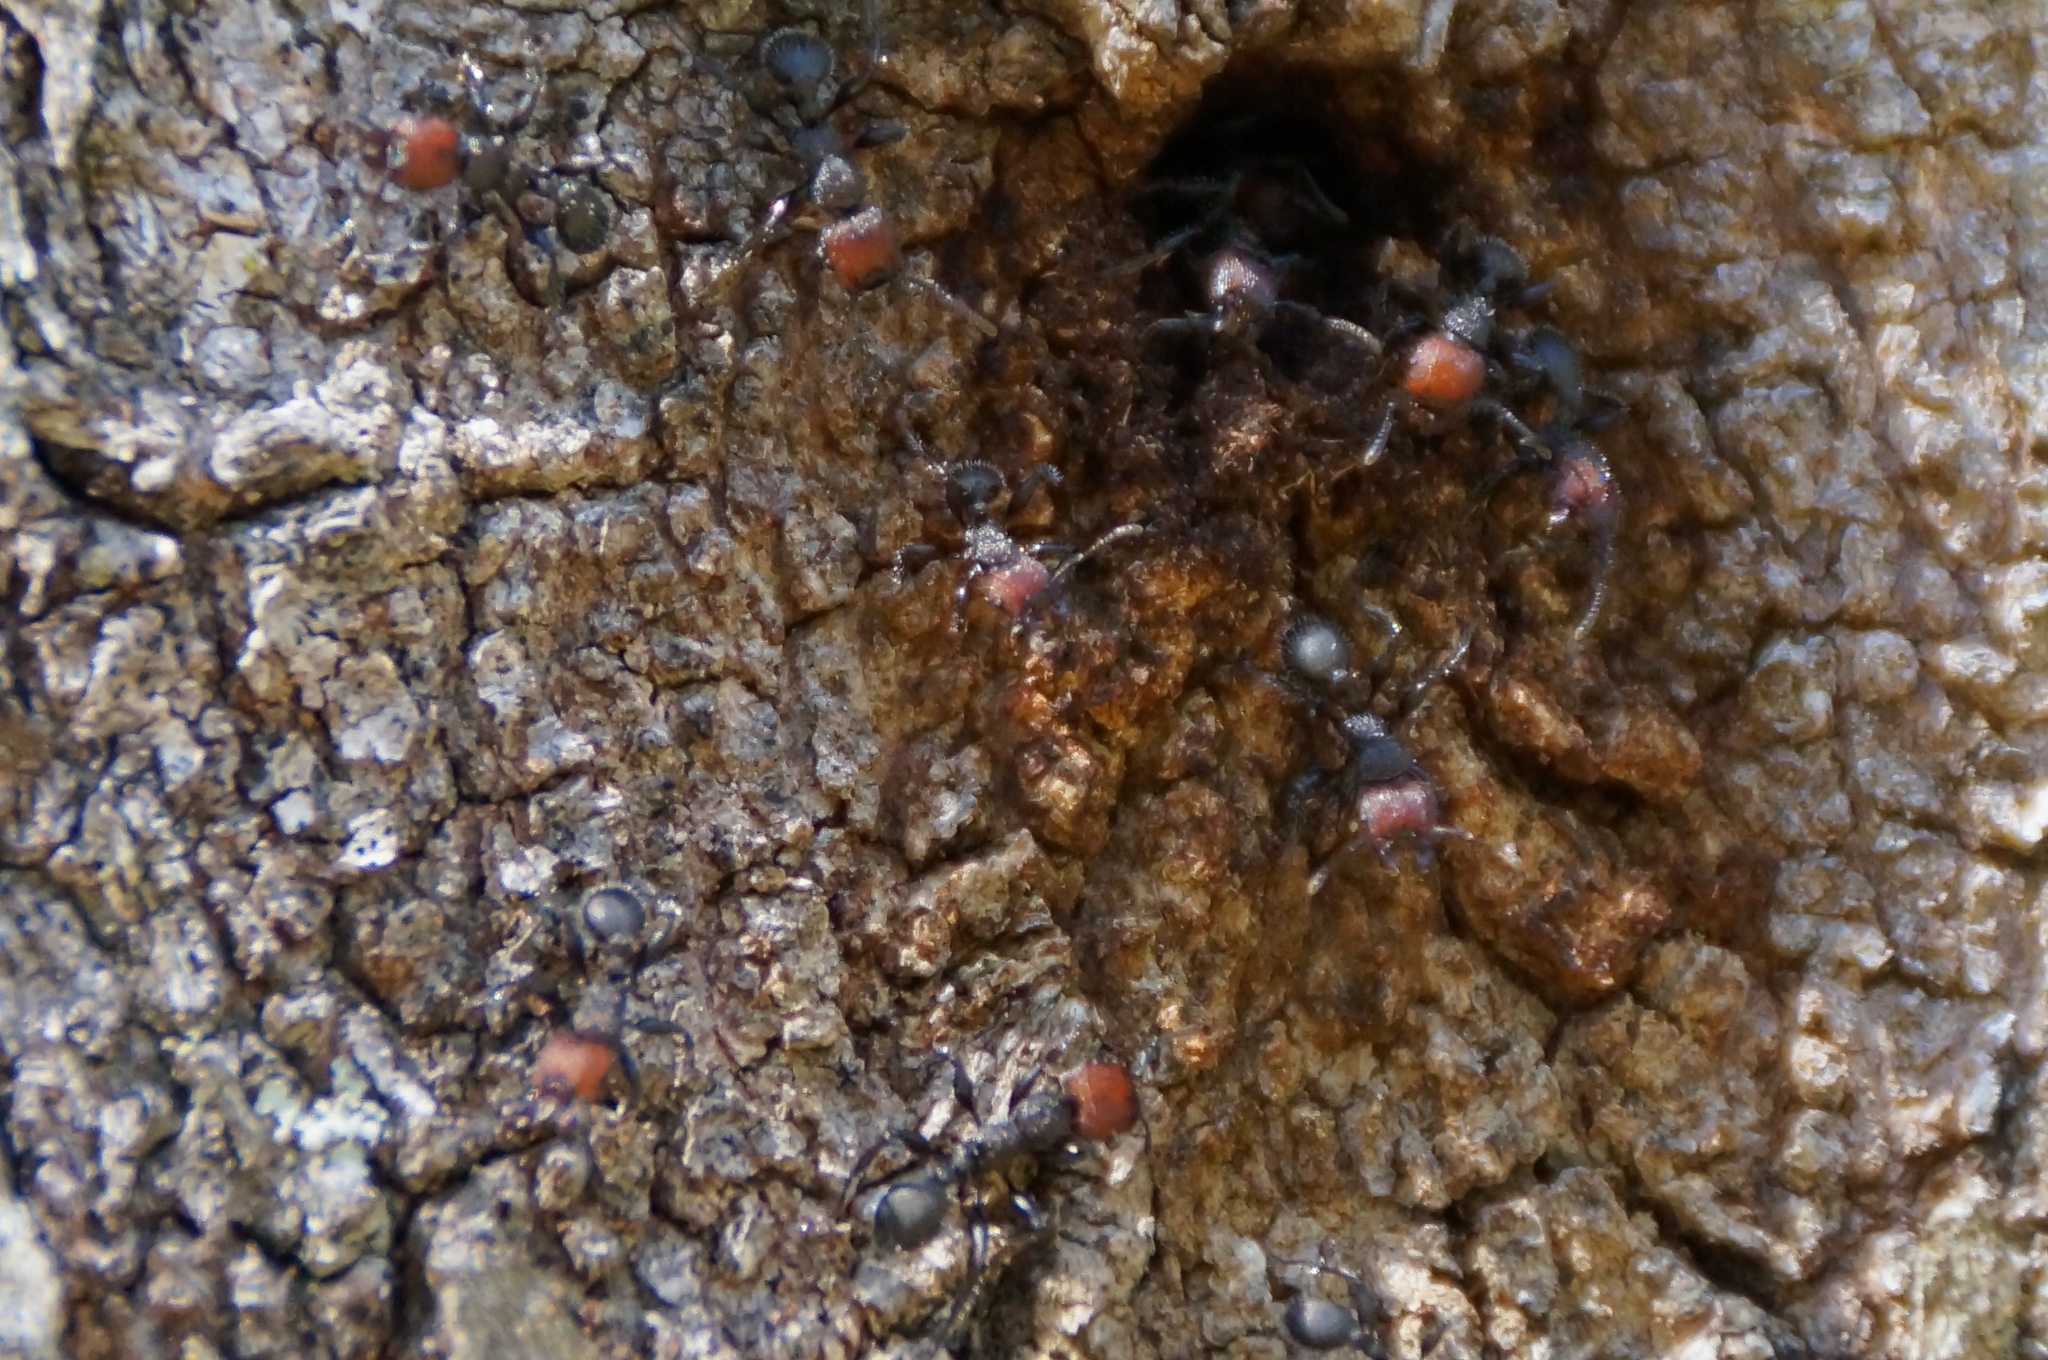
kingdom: Animalia
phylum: Arthropoda
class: Insecta
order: Hymenoptera
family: Formicidae
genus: Podomyrma
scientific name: Podomyrma micans
